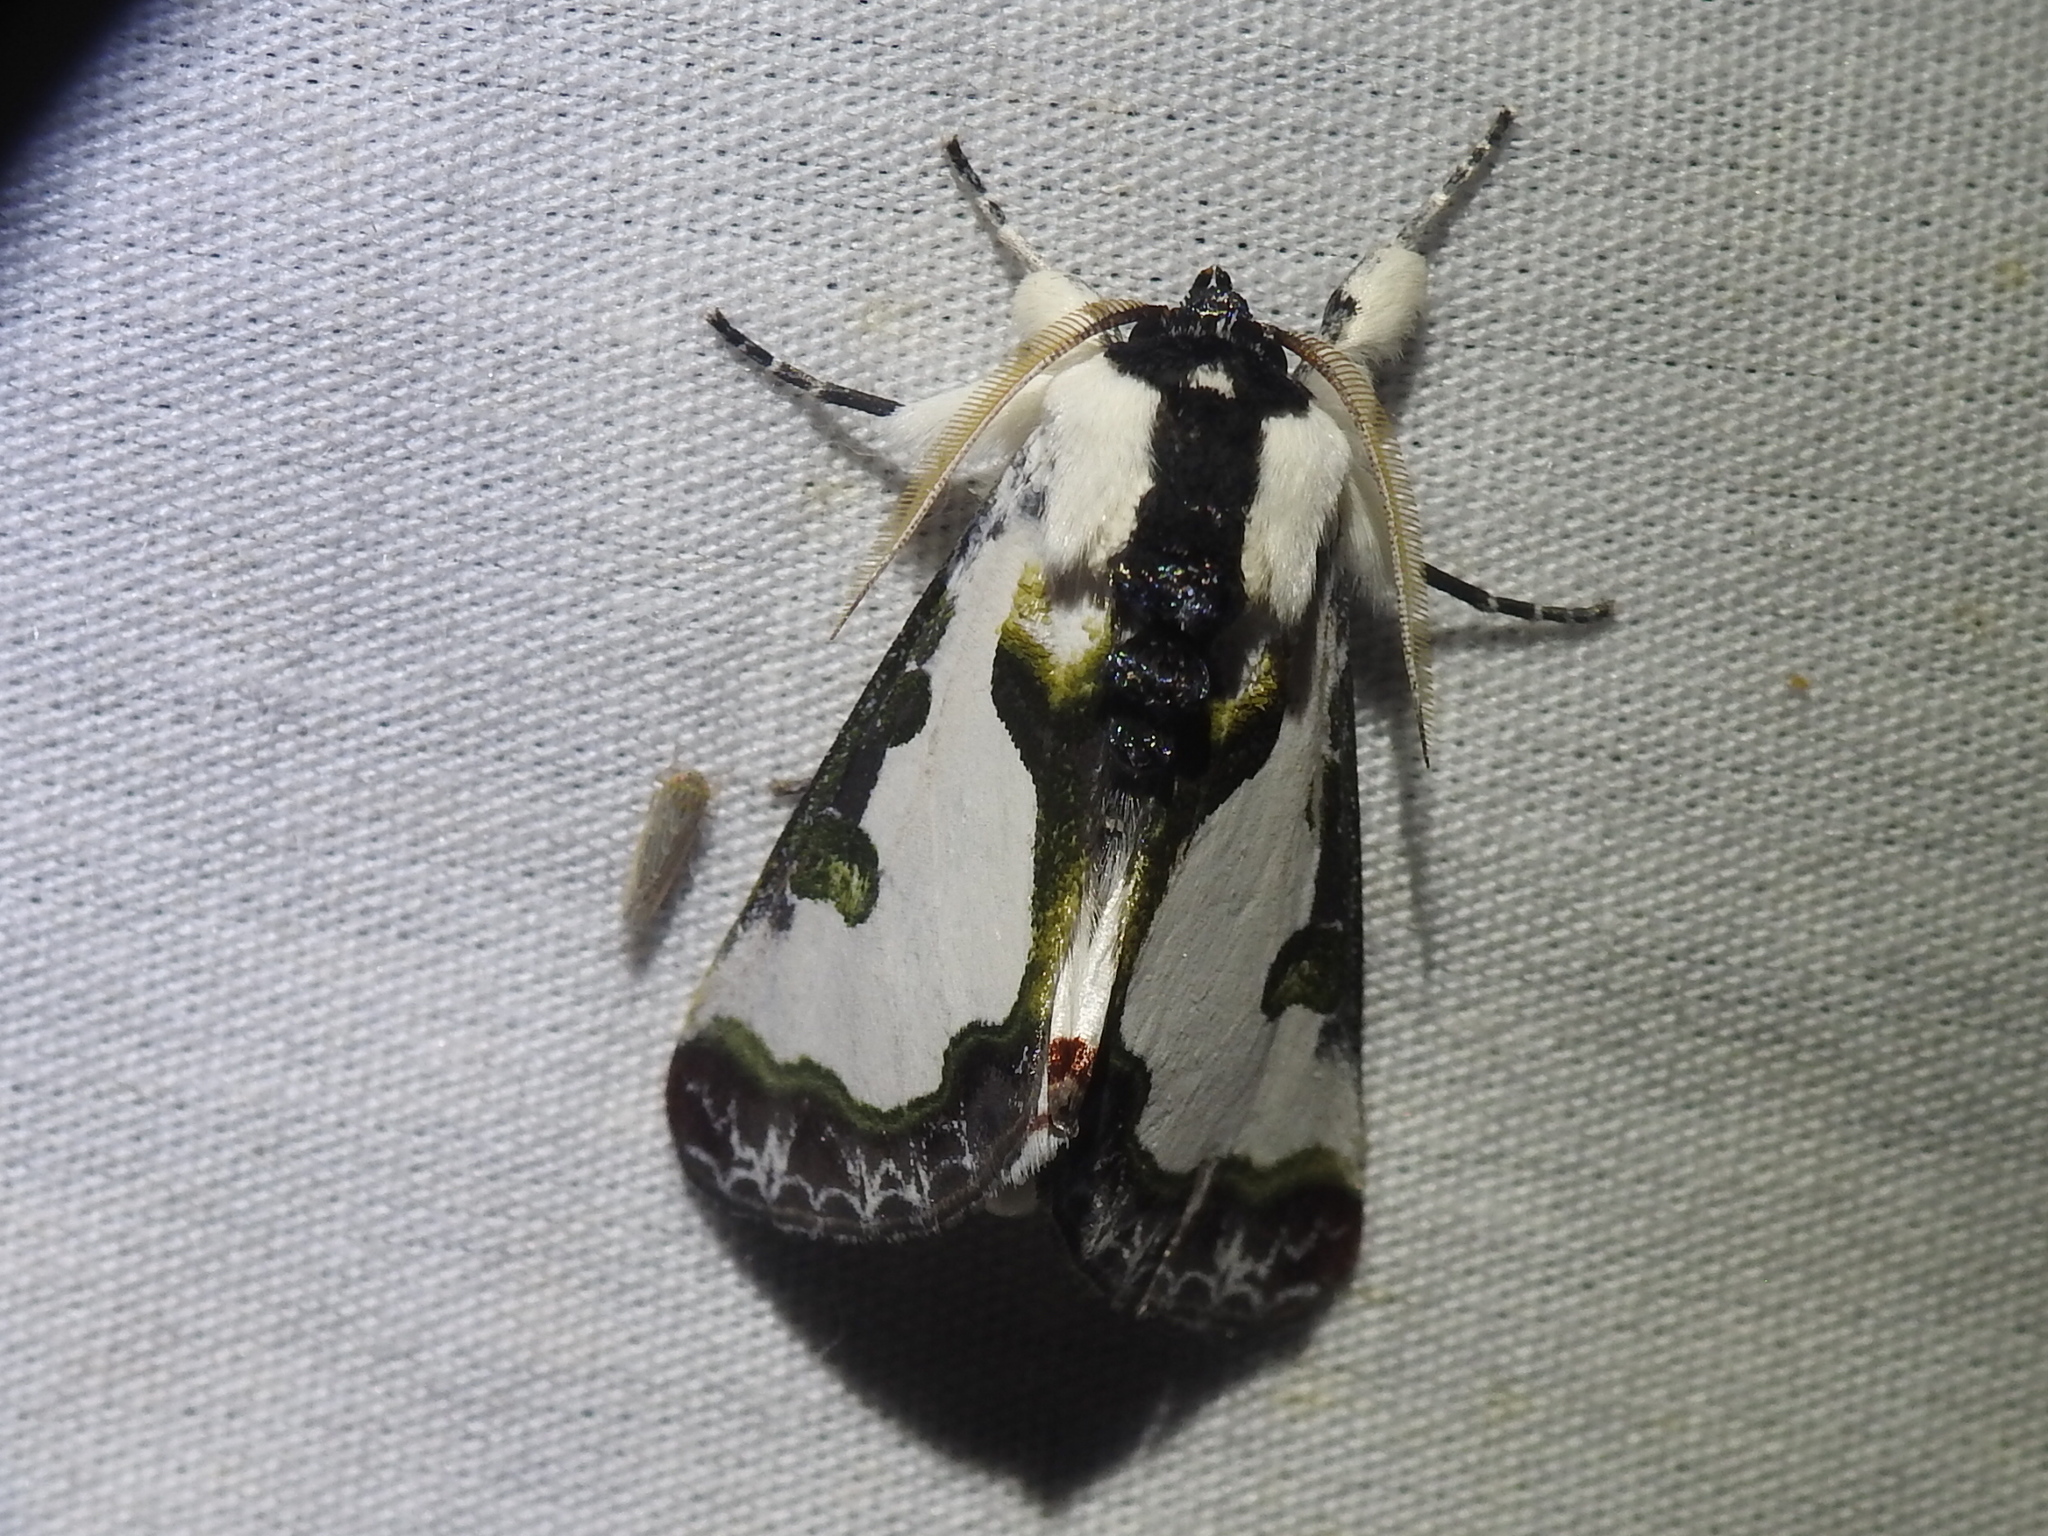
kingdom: Animalia
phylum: Arthropoda
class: Insecta
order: Lepidoptera
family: Noctuidae
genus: Xerociris
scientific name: Xerociris wilsonii
